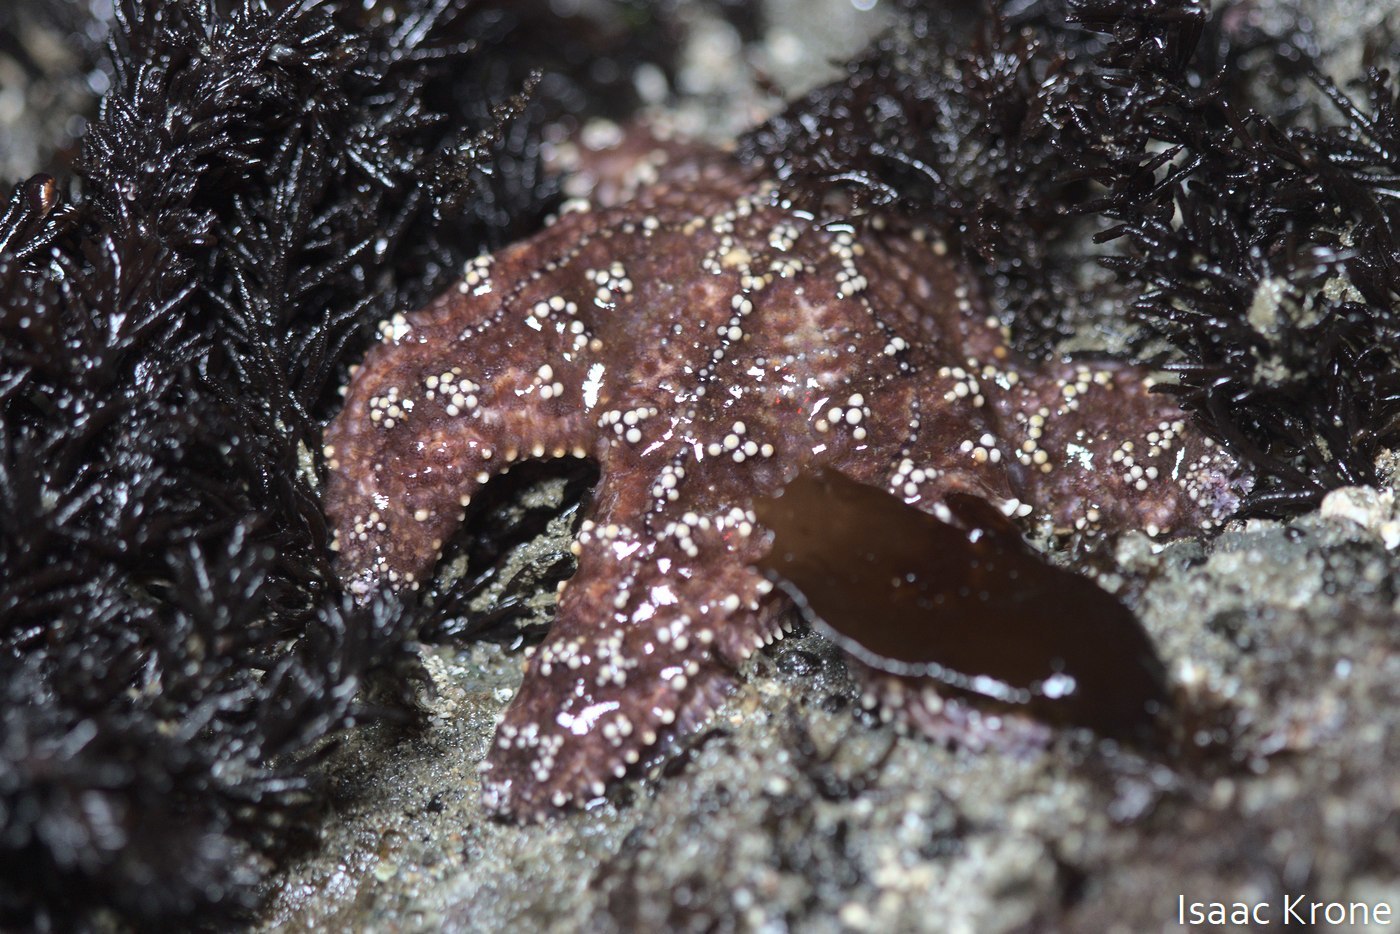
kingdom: Animalia
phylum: Echinodermata
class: Asteroidea
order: Forcipulatida
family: Asteriidae
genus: Pisaster
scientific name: Pisaster ochraceus
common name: Ochre stars
